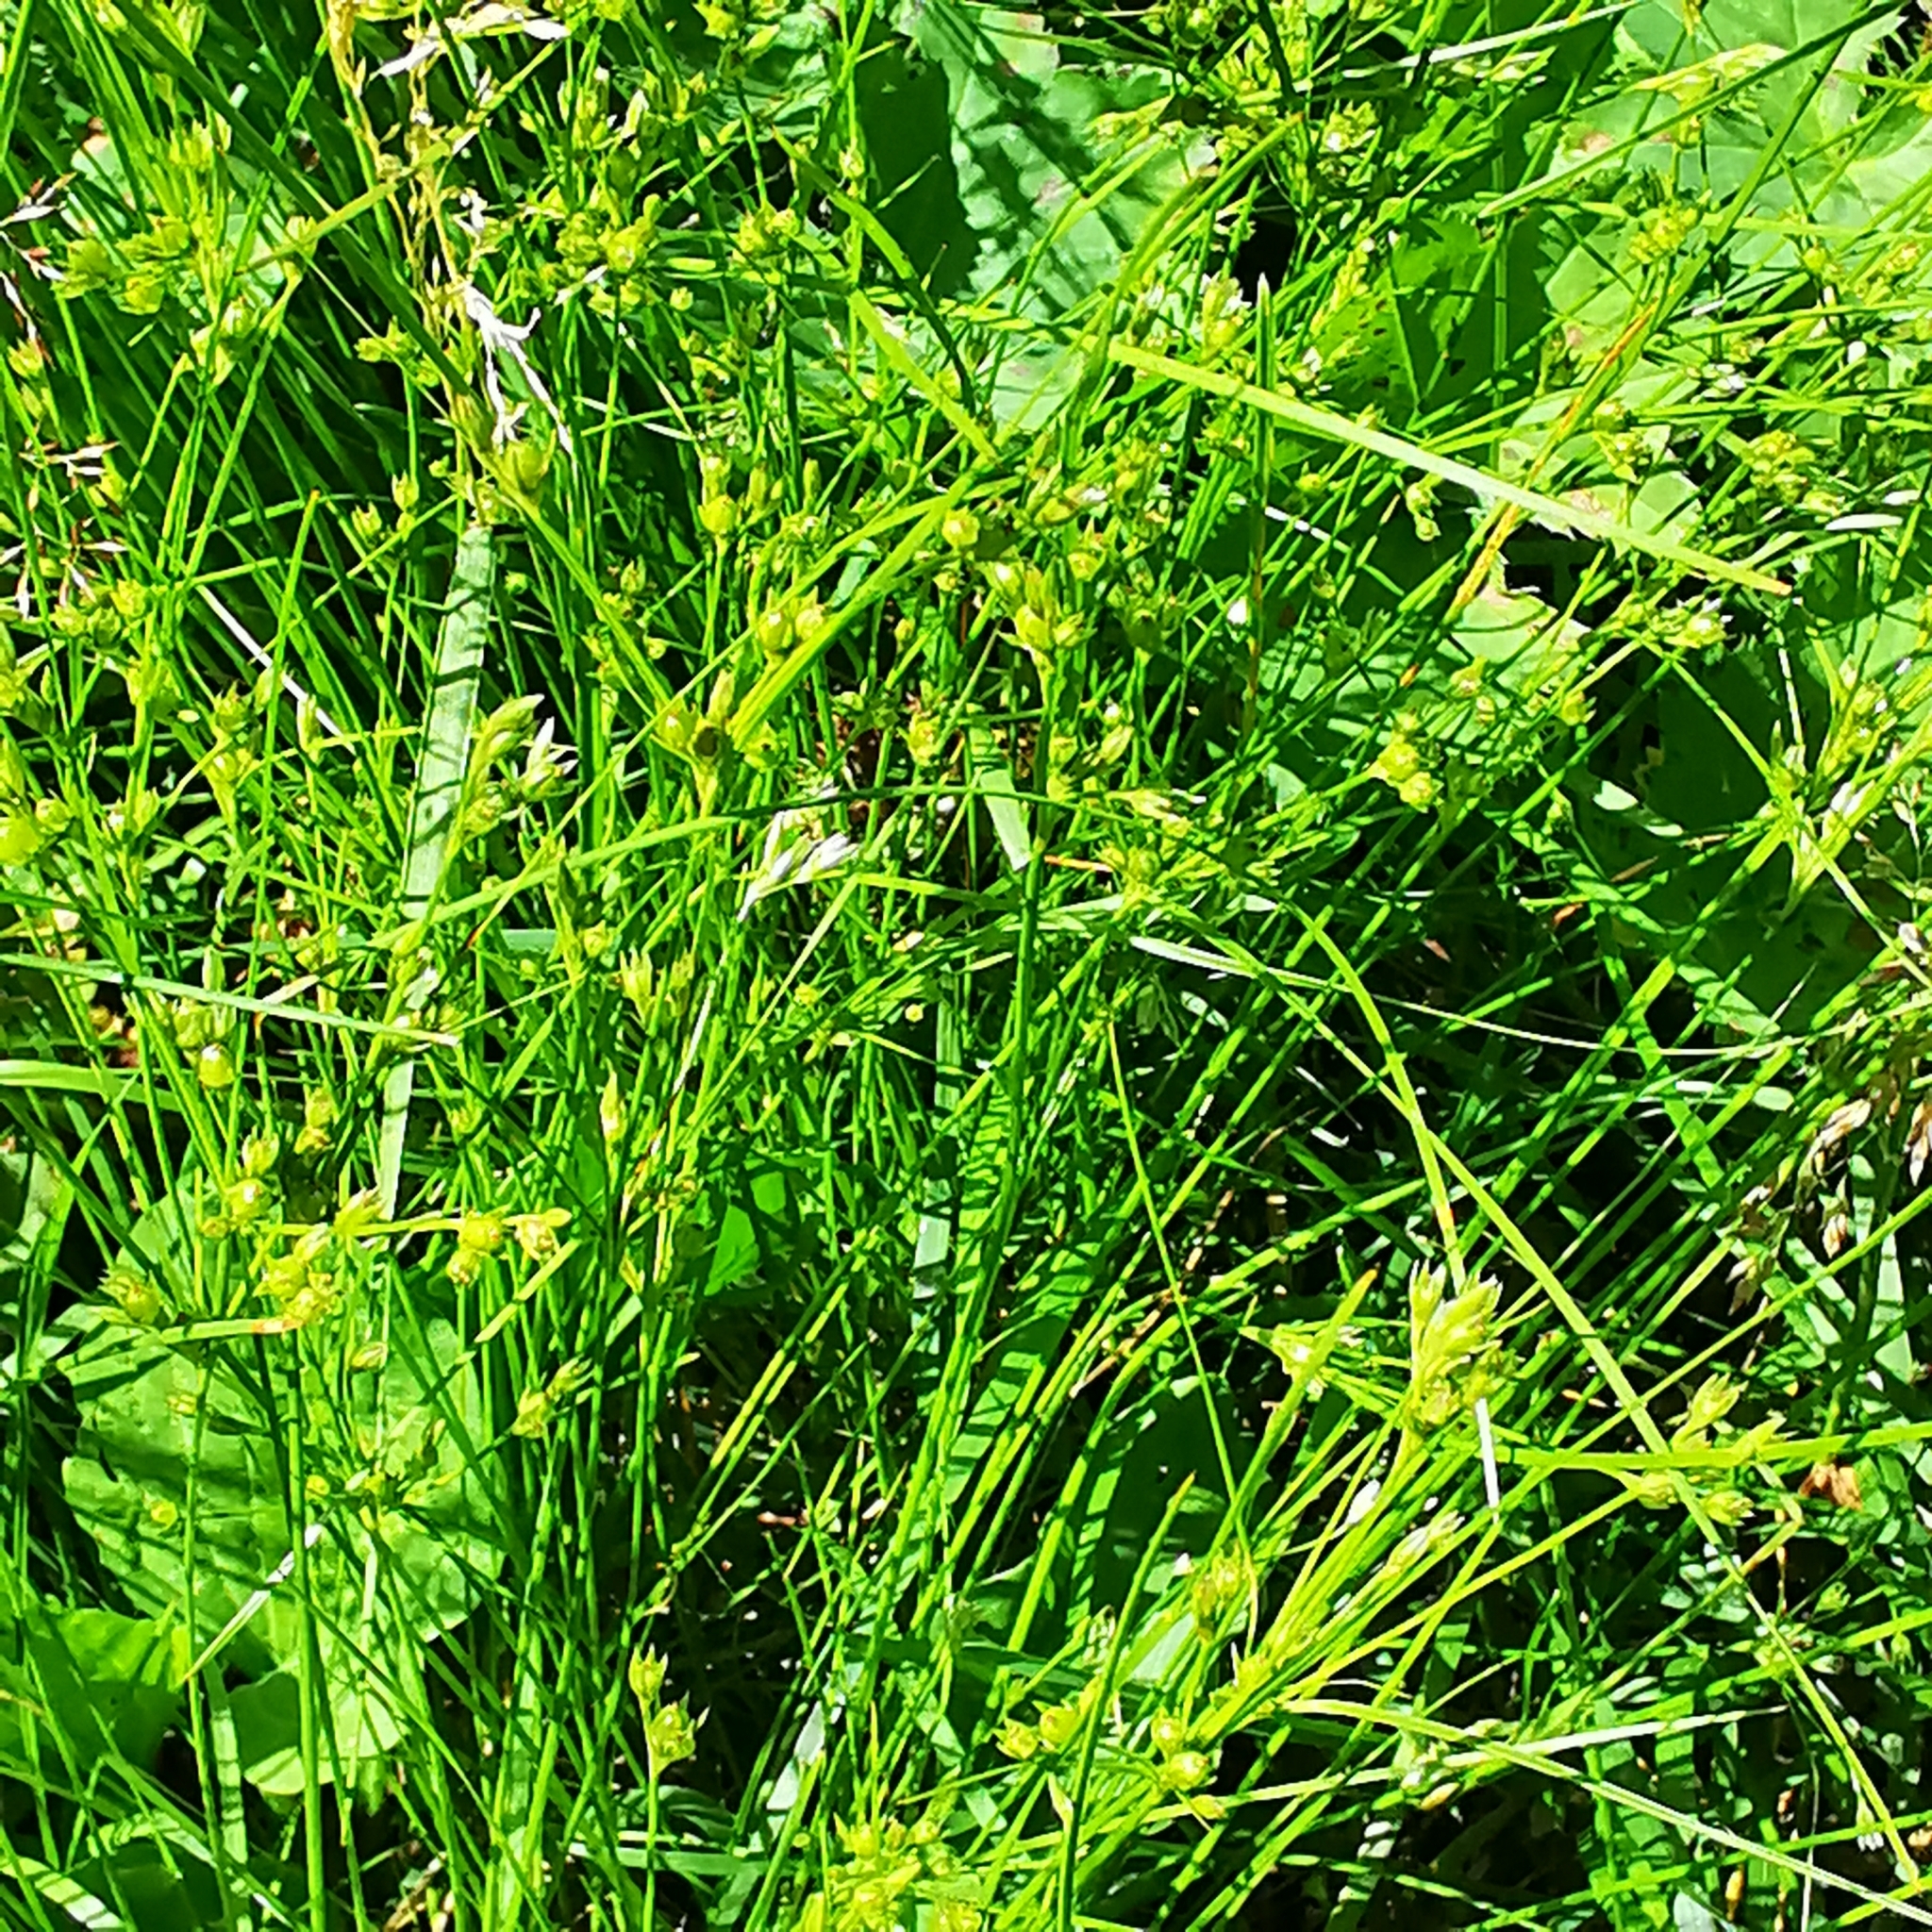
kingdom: Plantae
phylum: Tracheophyta
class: Liliopsida
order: Poales
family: Juncaceae
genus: Juncus
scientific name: Juncus tenuis
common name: Slender rush
